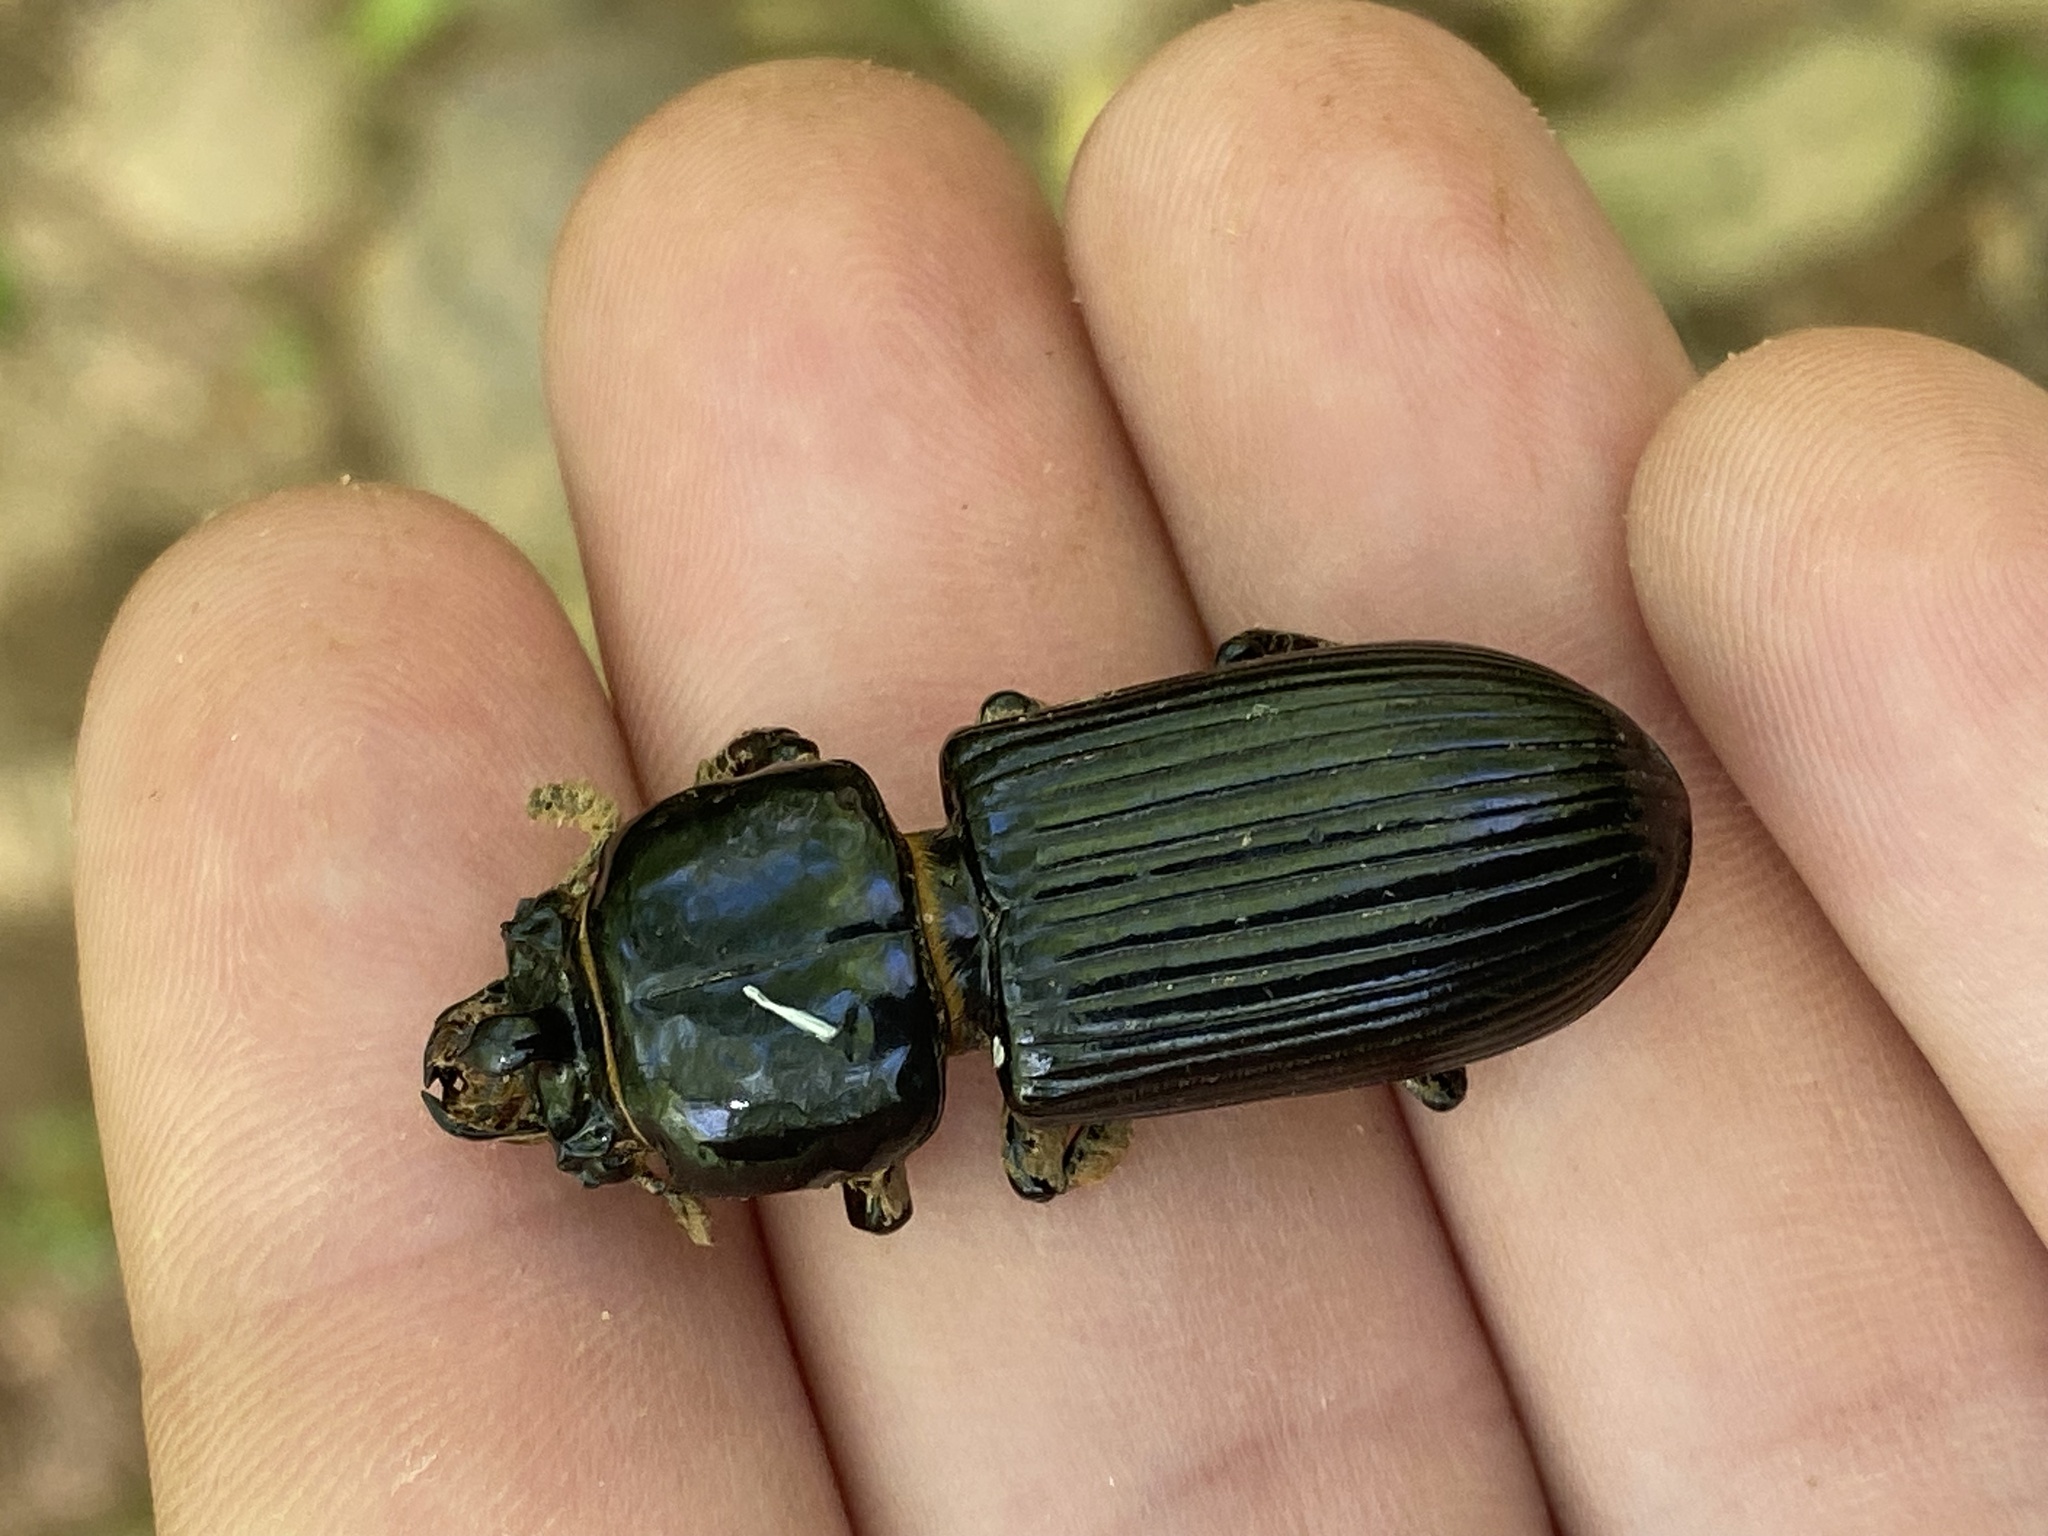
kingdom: Animalia
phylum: Arthropoda
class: Insecta
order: Coleoptera
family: Passalidae
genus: Odontotaenius
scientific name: Odontotaenius disjunctus
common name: Patent leather beetle
